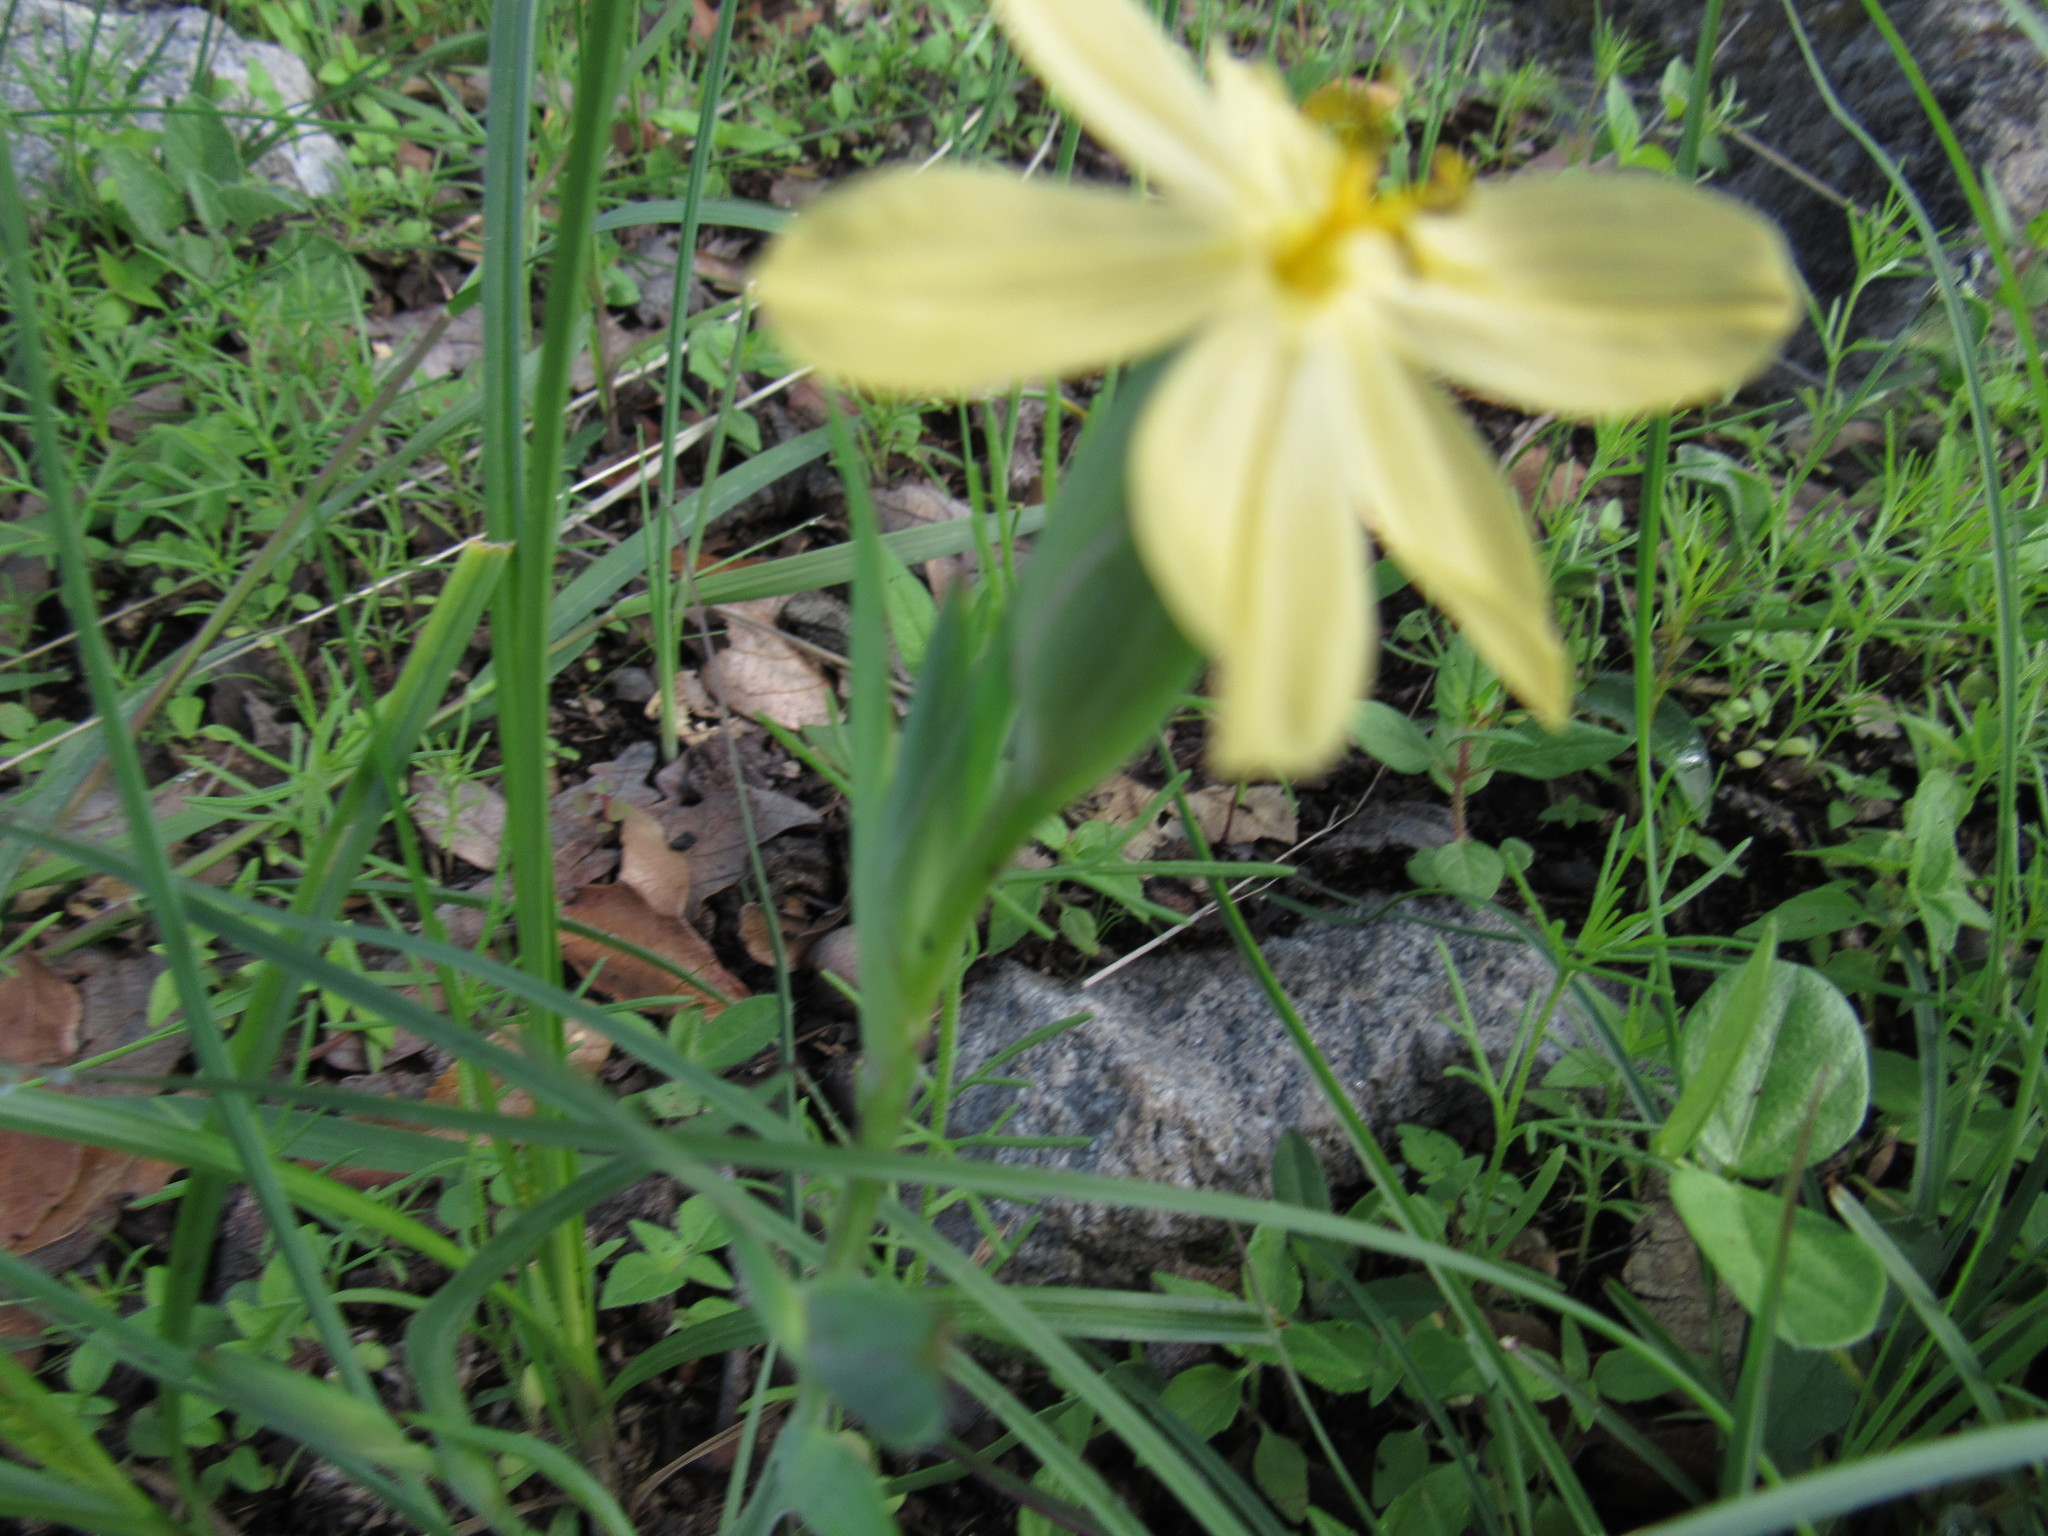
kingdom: Plantae
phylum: Tracheophyta
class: Liliopsida
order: Asparagales
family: Iridaceae
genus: Sisyrinchium
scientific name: Sisyrinchium tenuifolium
